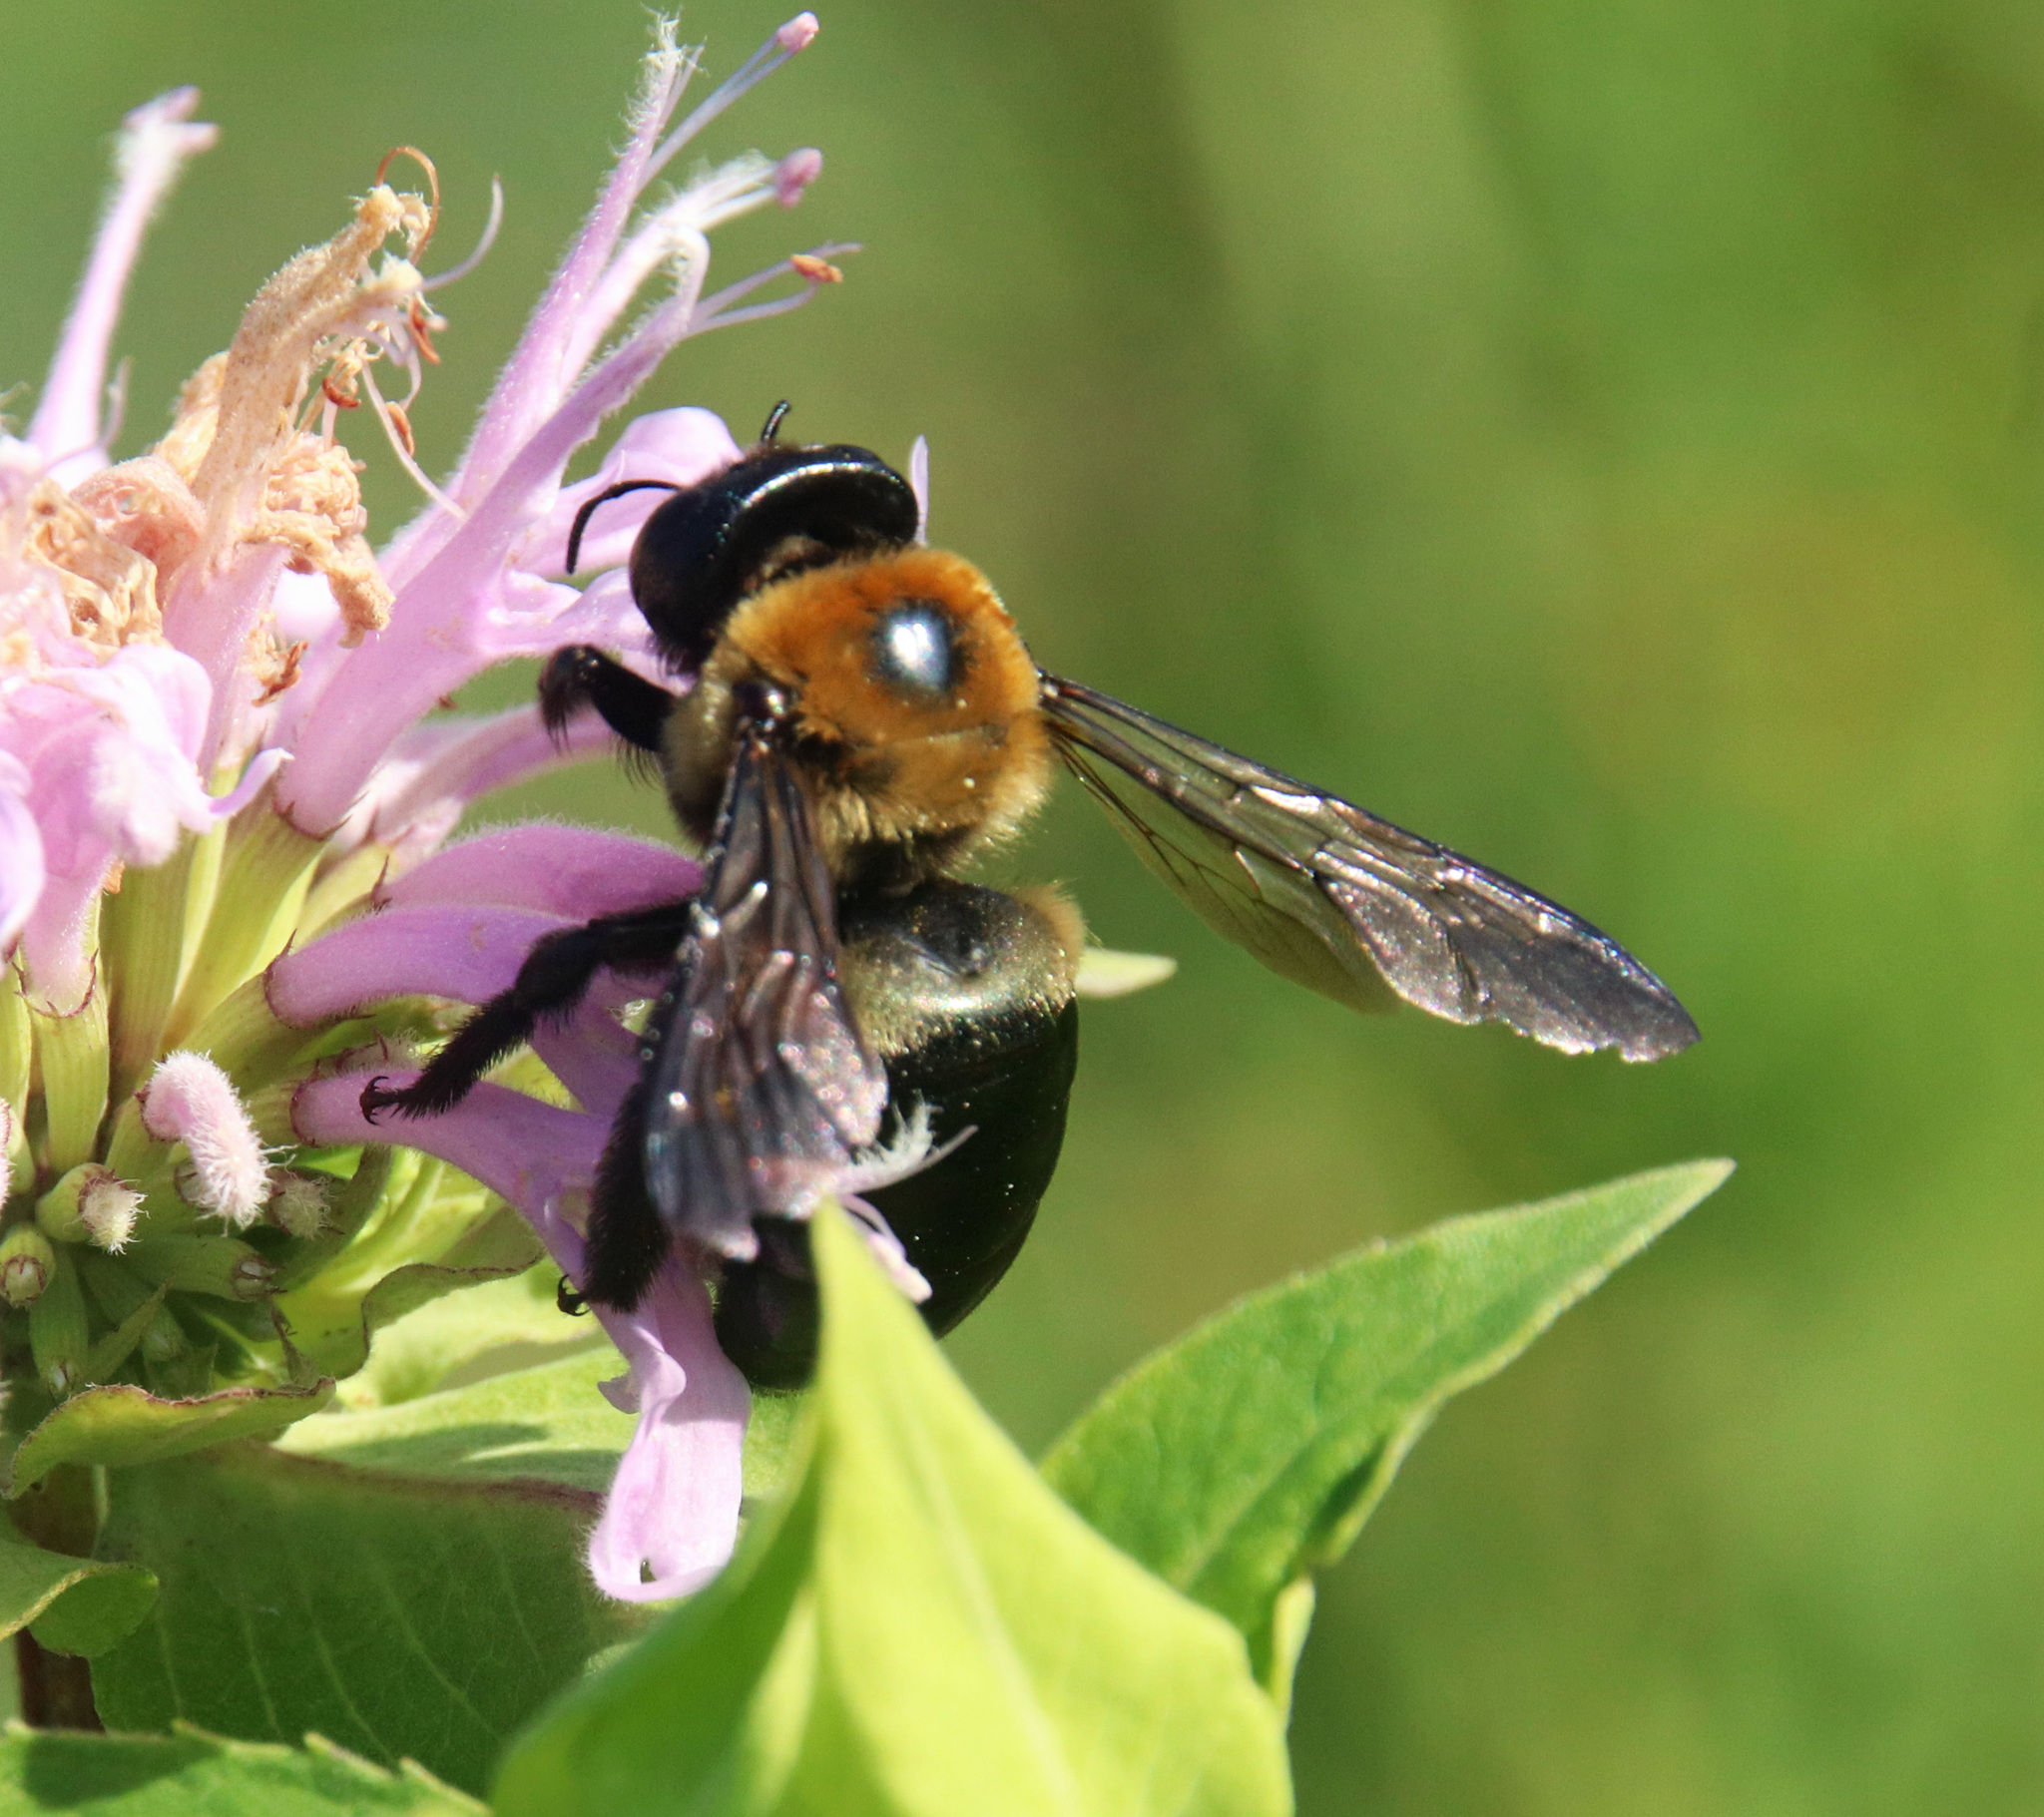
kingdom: Animalia
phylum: Arthropoda
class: Insecta
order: Hymenoptera
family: Apidae
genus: Xylocopa
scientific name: Xylocopa virginica
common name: Carpenter bee
